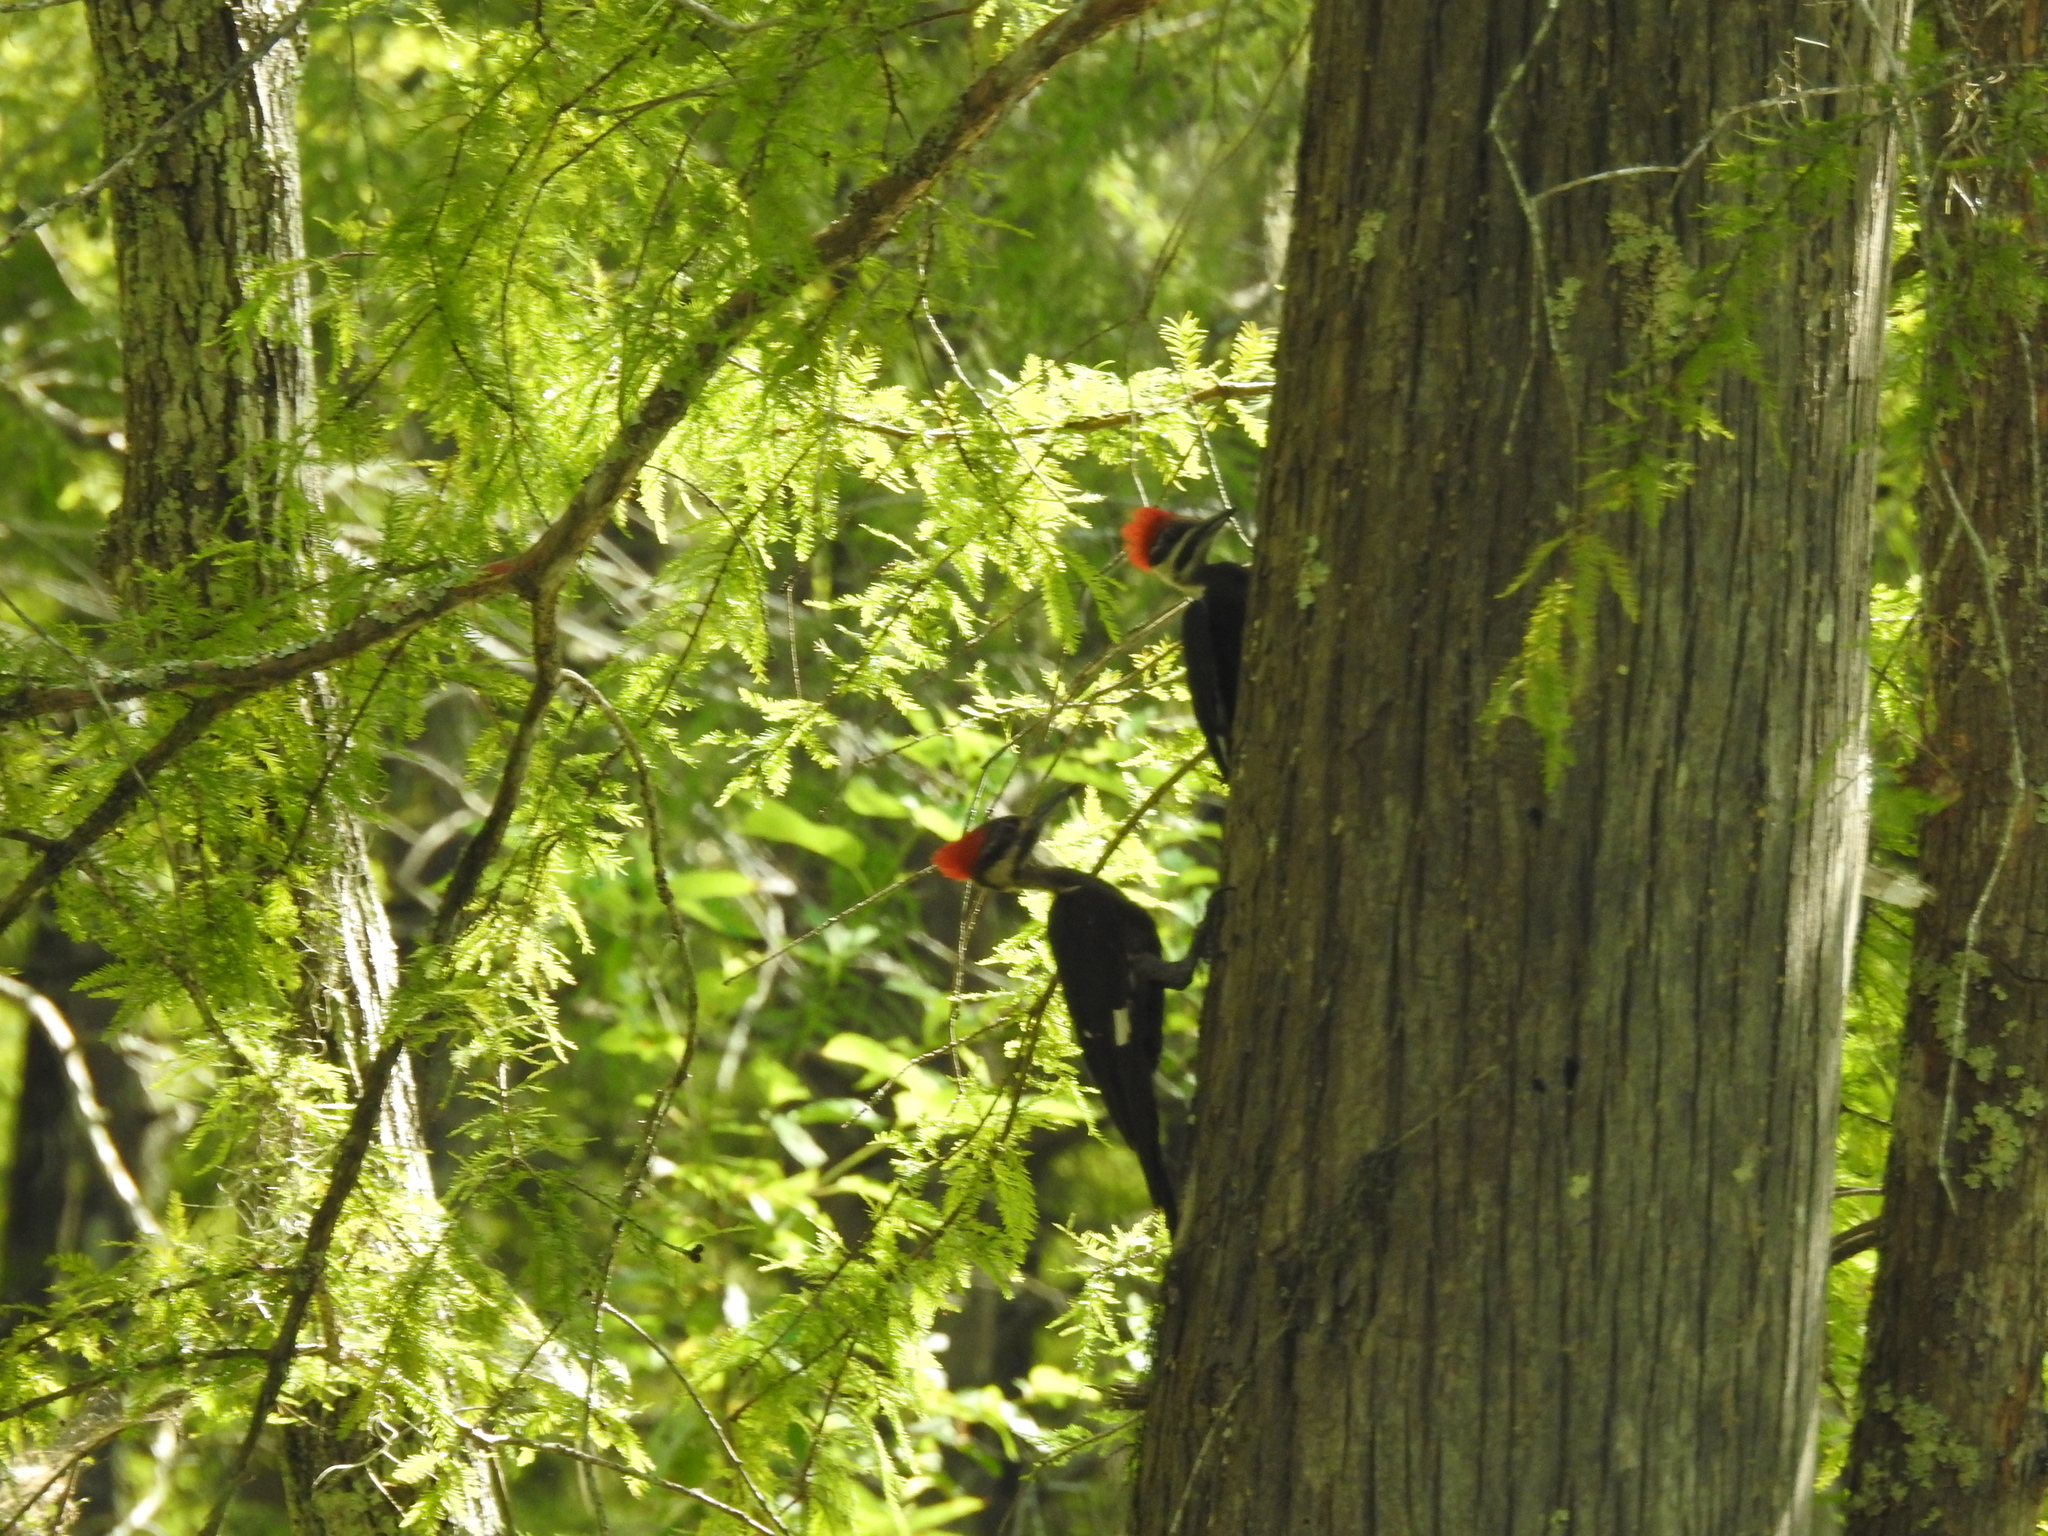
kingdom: Animalia
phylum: Chordata
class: Aves
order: Piciformes
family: Picidae
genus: Dryocopus
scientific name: Dryocopus pileatus
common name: Pileated woodpecker
